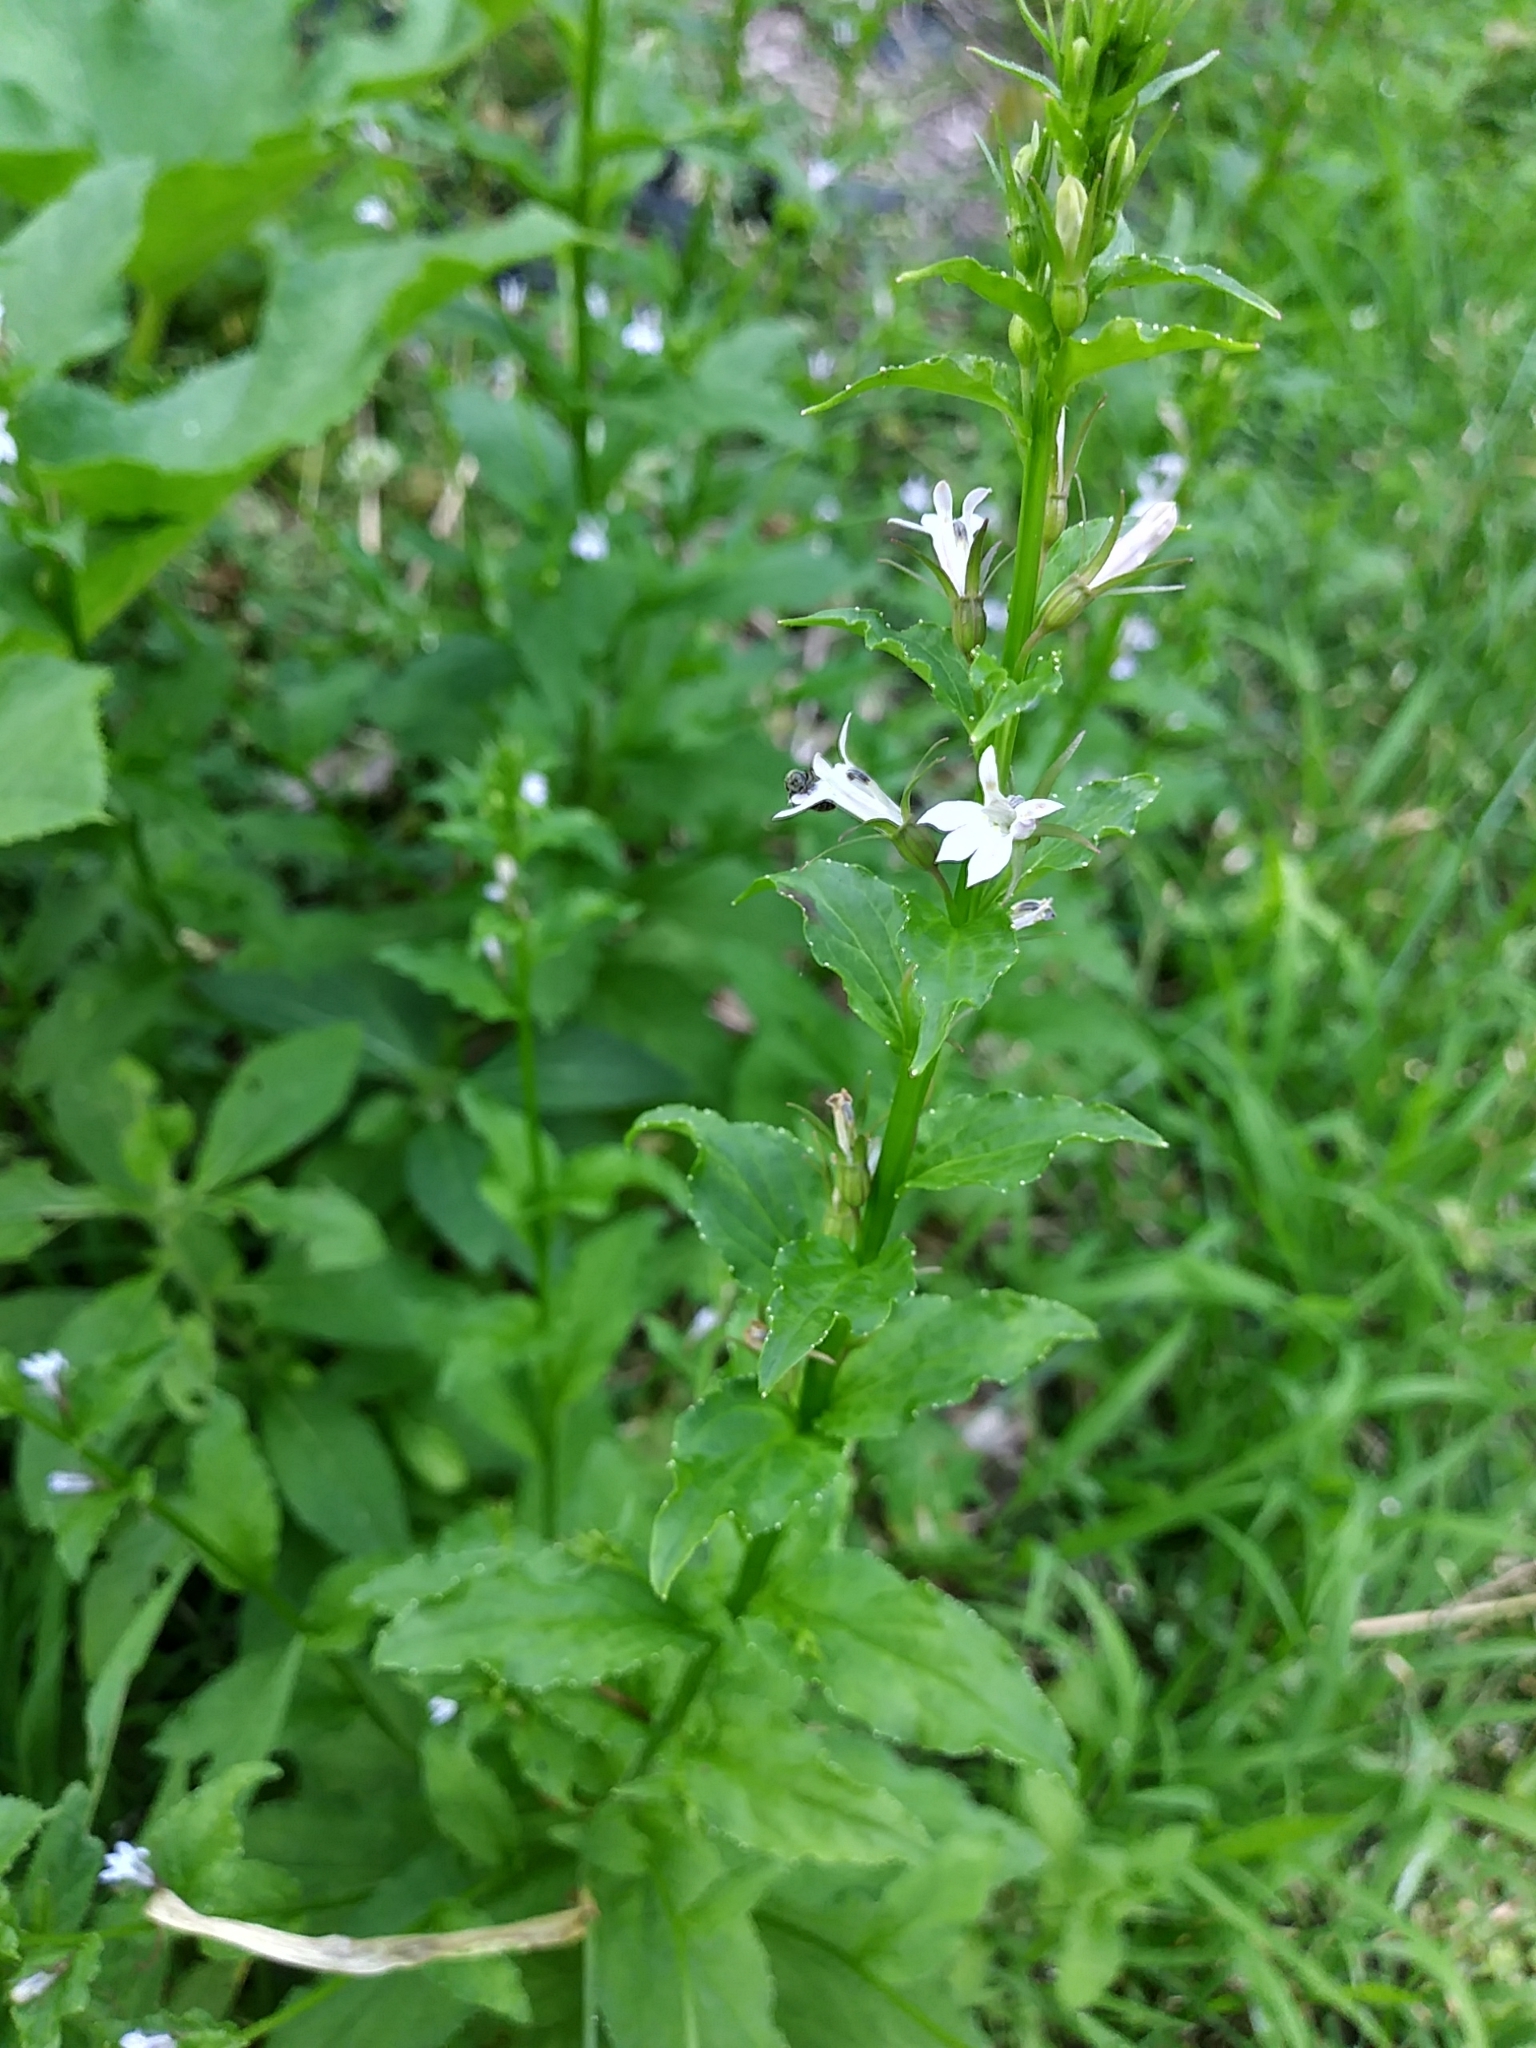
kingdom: Plantae
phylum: Tracheophyta
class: Magnoliopsida
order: Asterales
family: Campanulaceae
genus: Lobelia
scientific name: Lobelia inflata
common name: Indian tobacco
